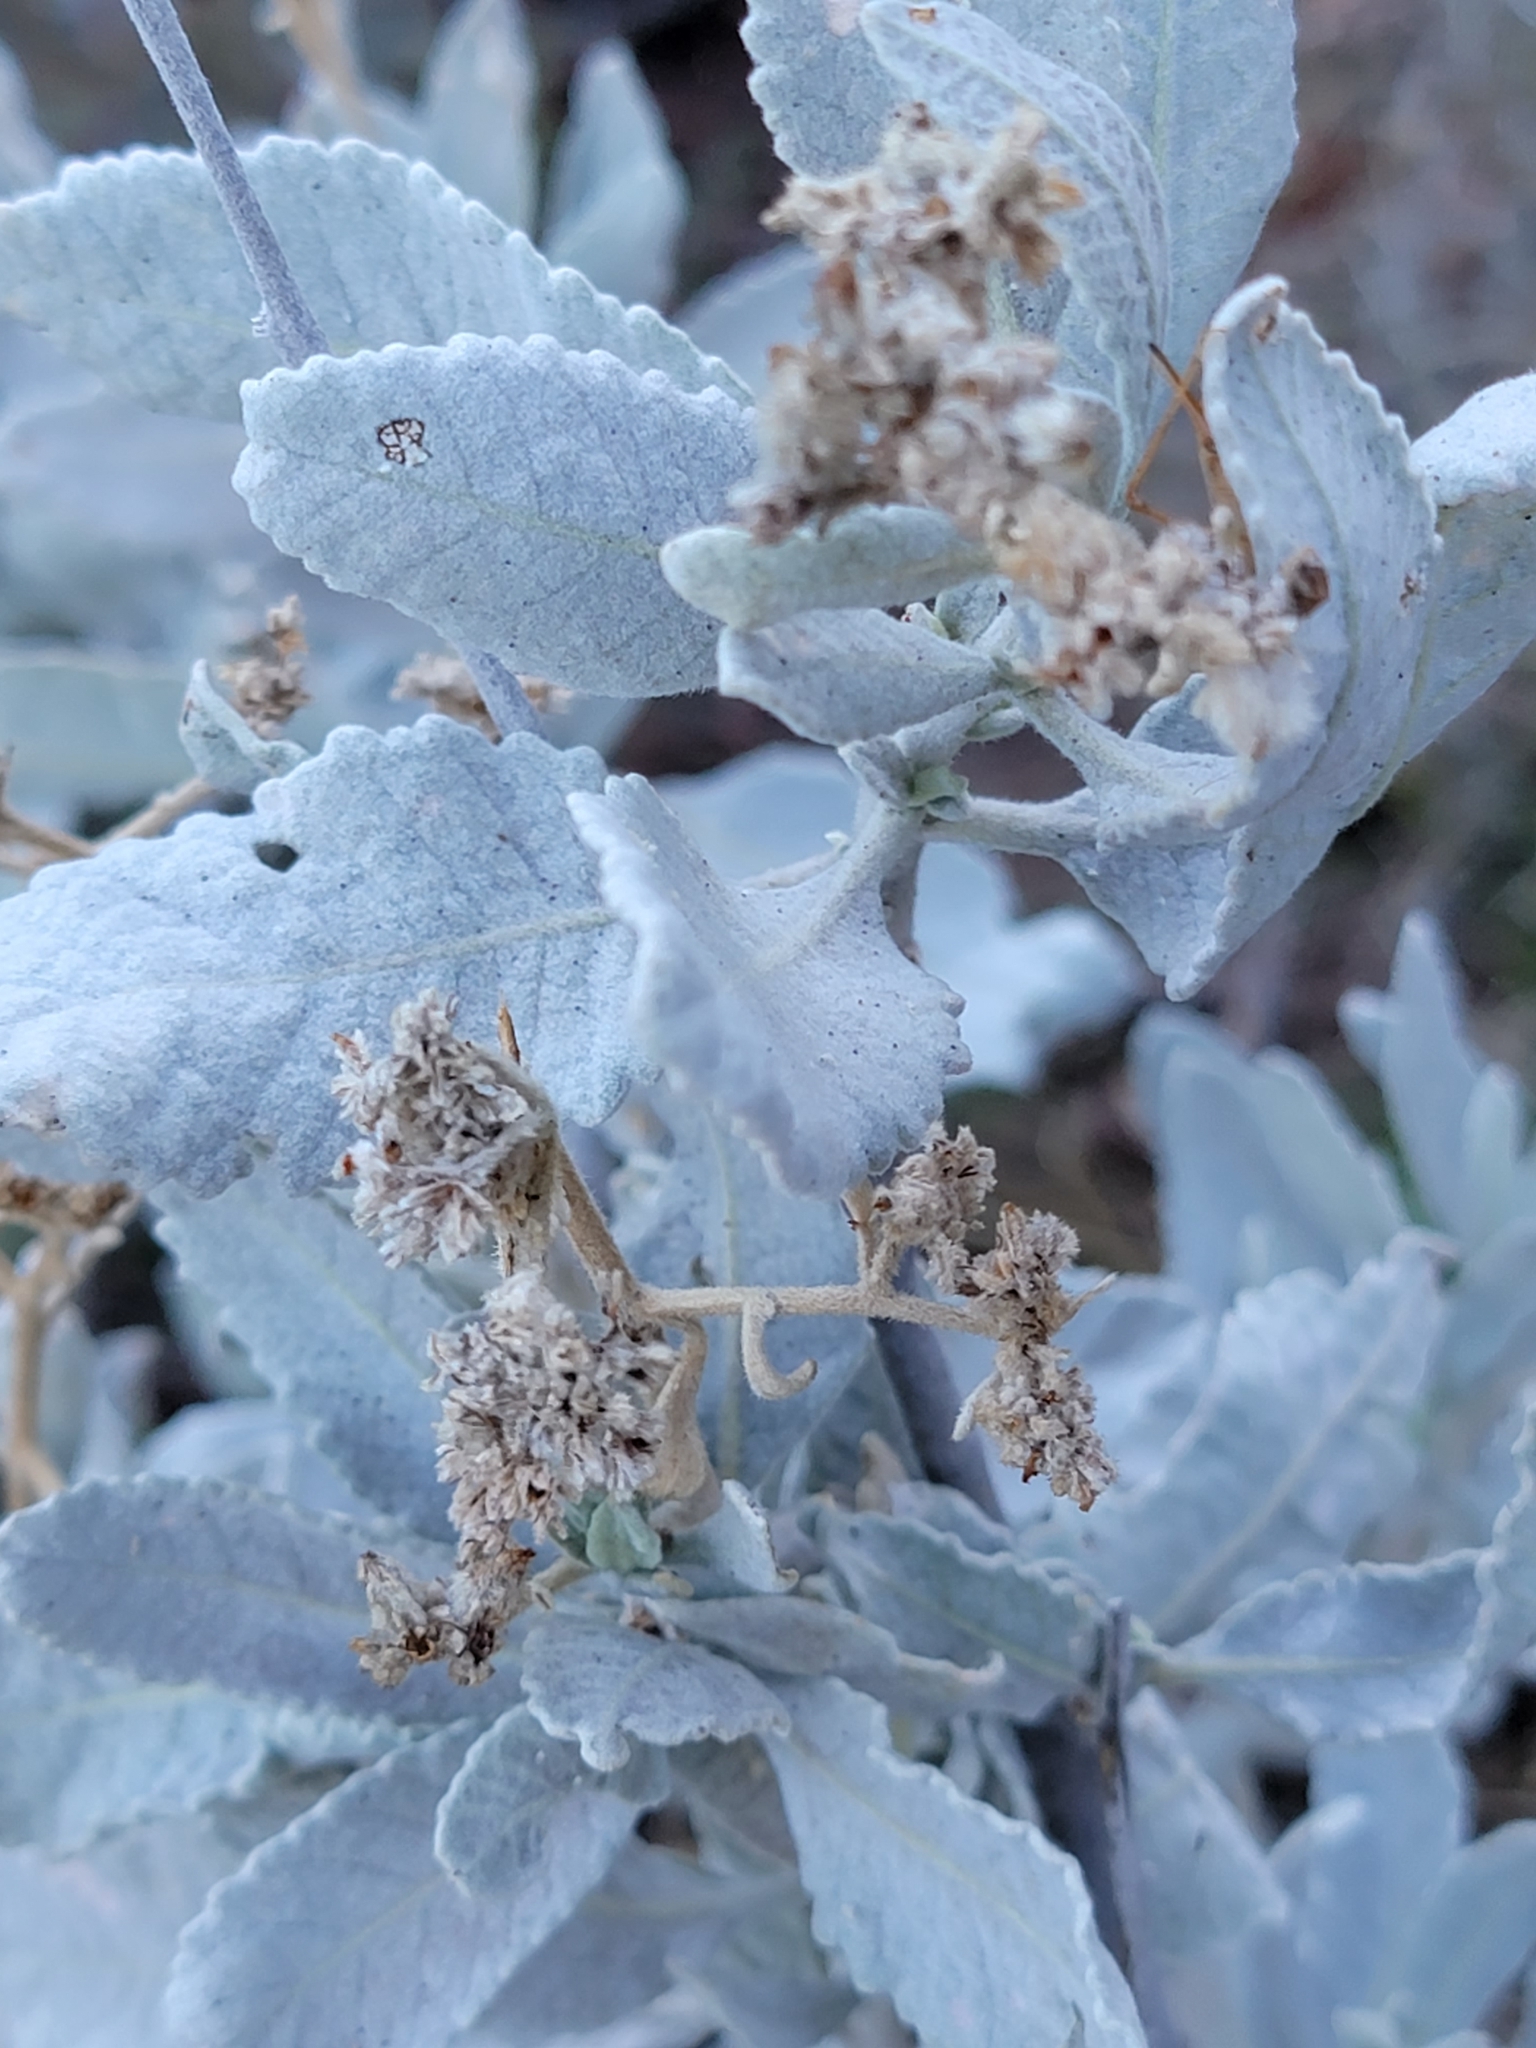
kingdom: Plantae
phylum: Tracheophyta
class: Magnoliopsida
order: Boraginales
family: Namaceae
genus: Eriodictyon
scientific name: Eriodictyon tomentosum
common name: Woolly yerba-santa
